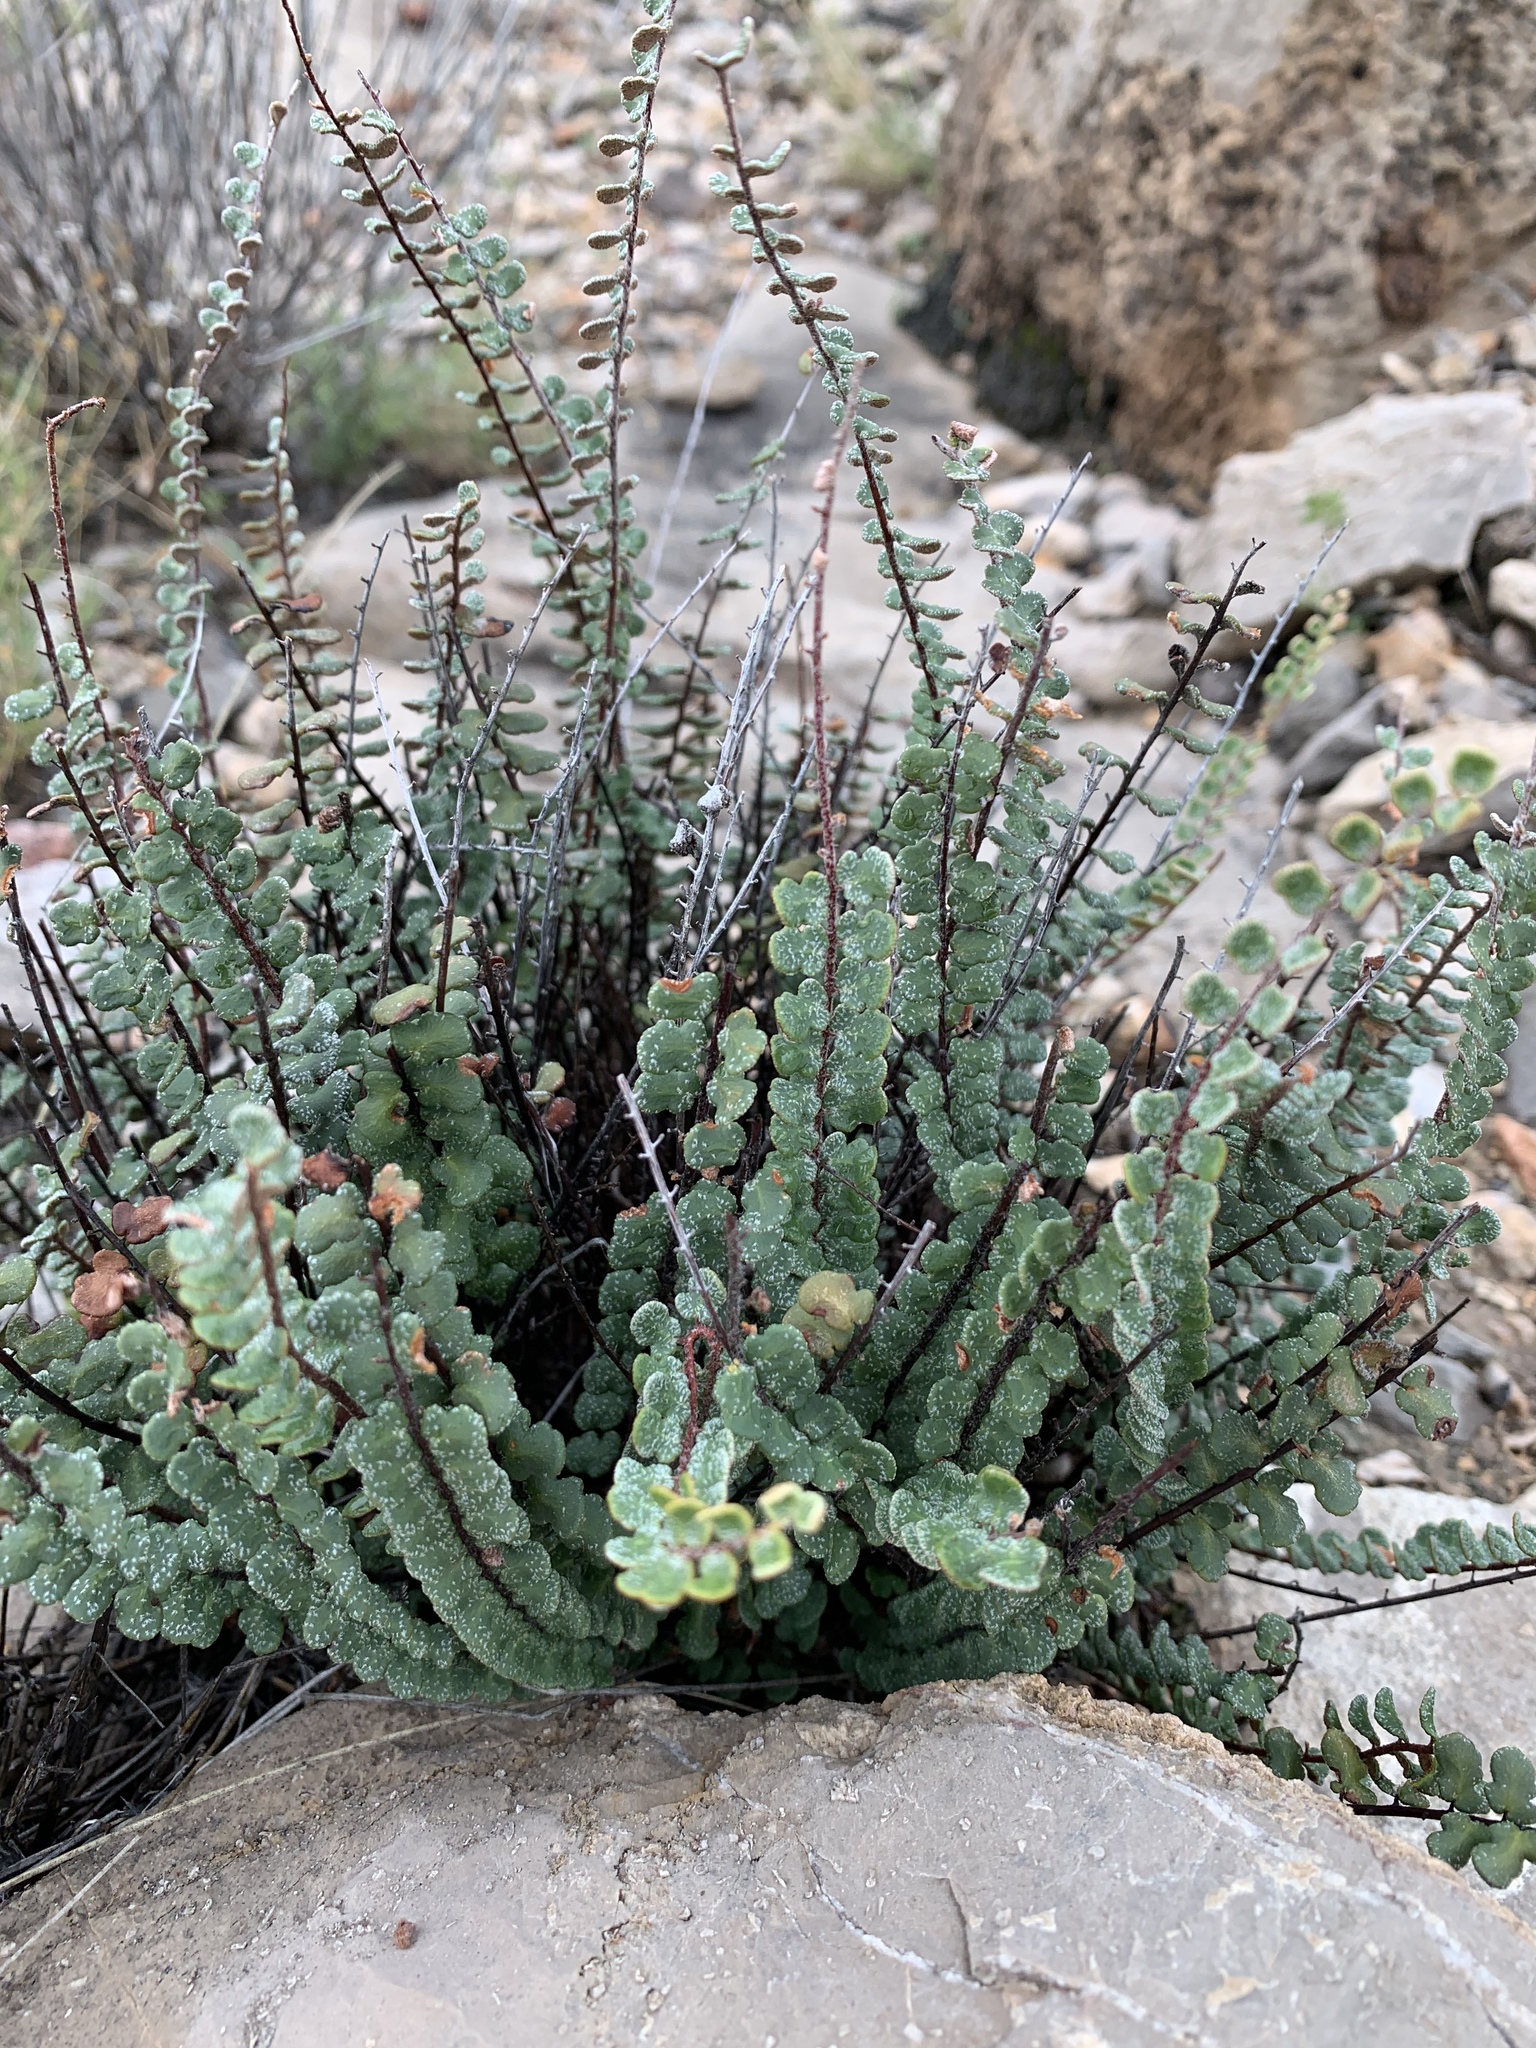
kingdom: Plantae
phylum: Tracheophyta
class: Polypodiopsida
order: Polypodiales
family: Pteridaceae
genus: Astrolepis
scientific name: Astrolepis cochisensis
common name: Scaly cloak fern
